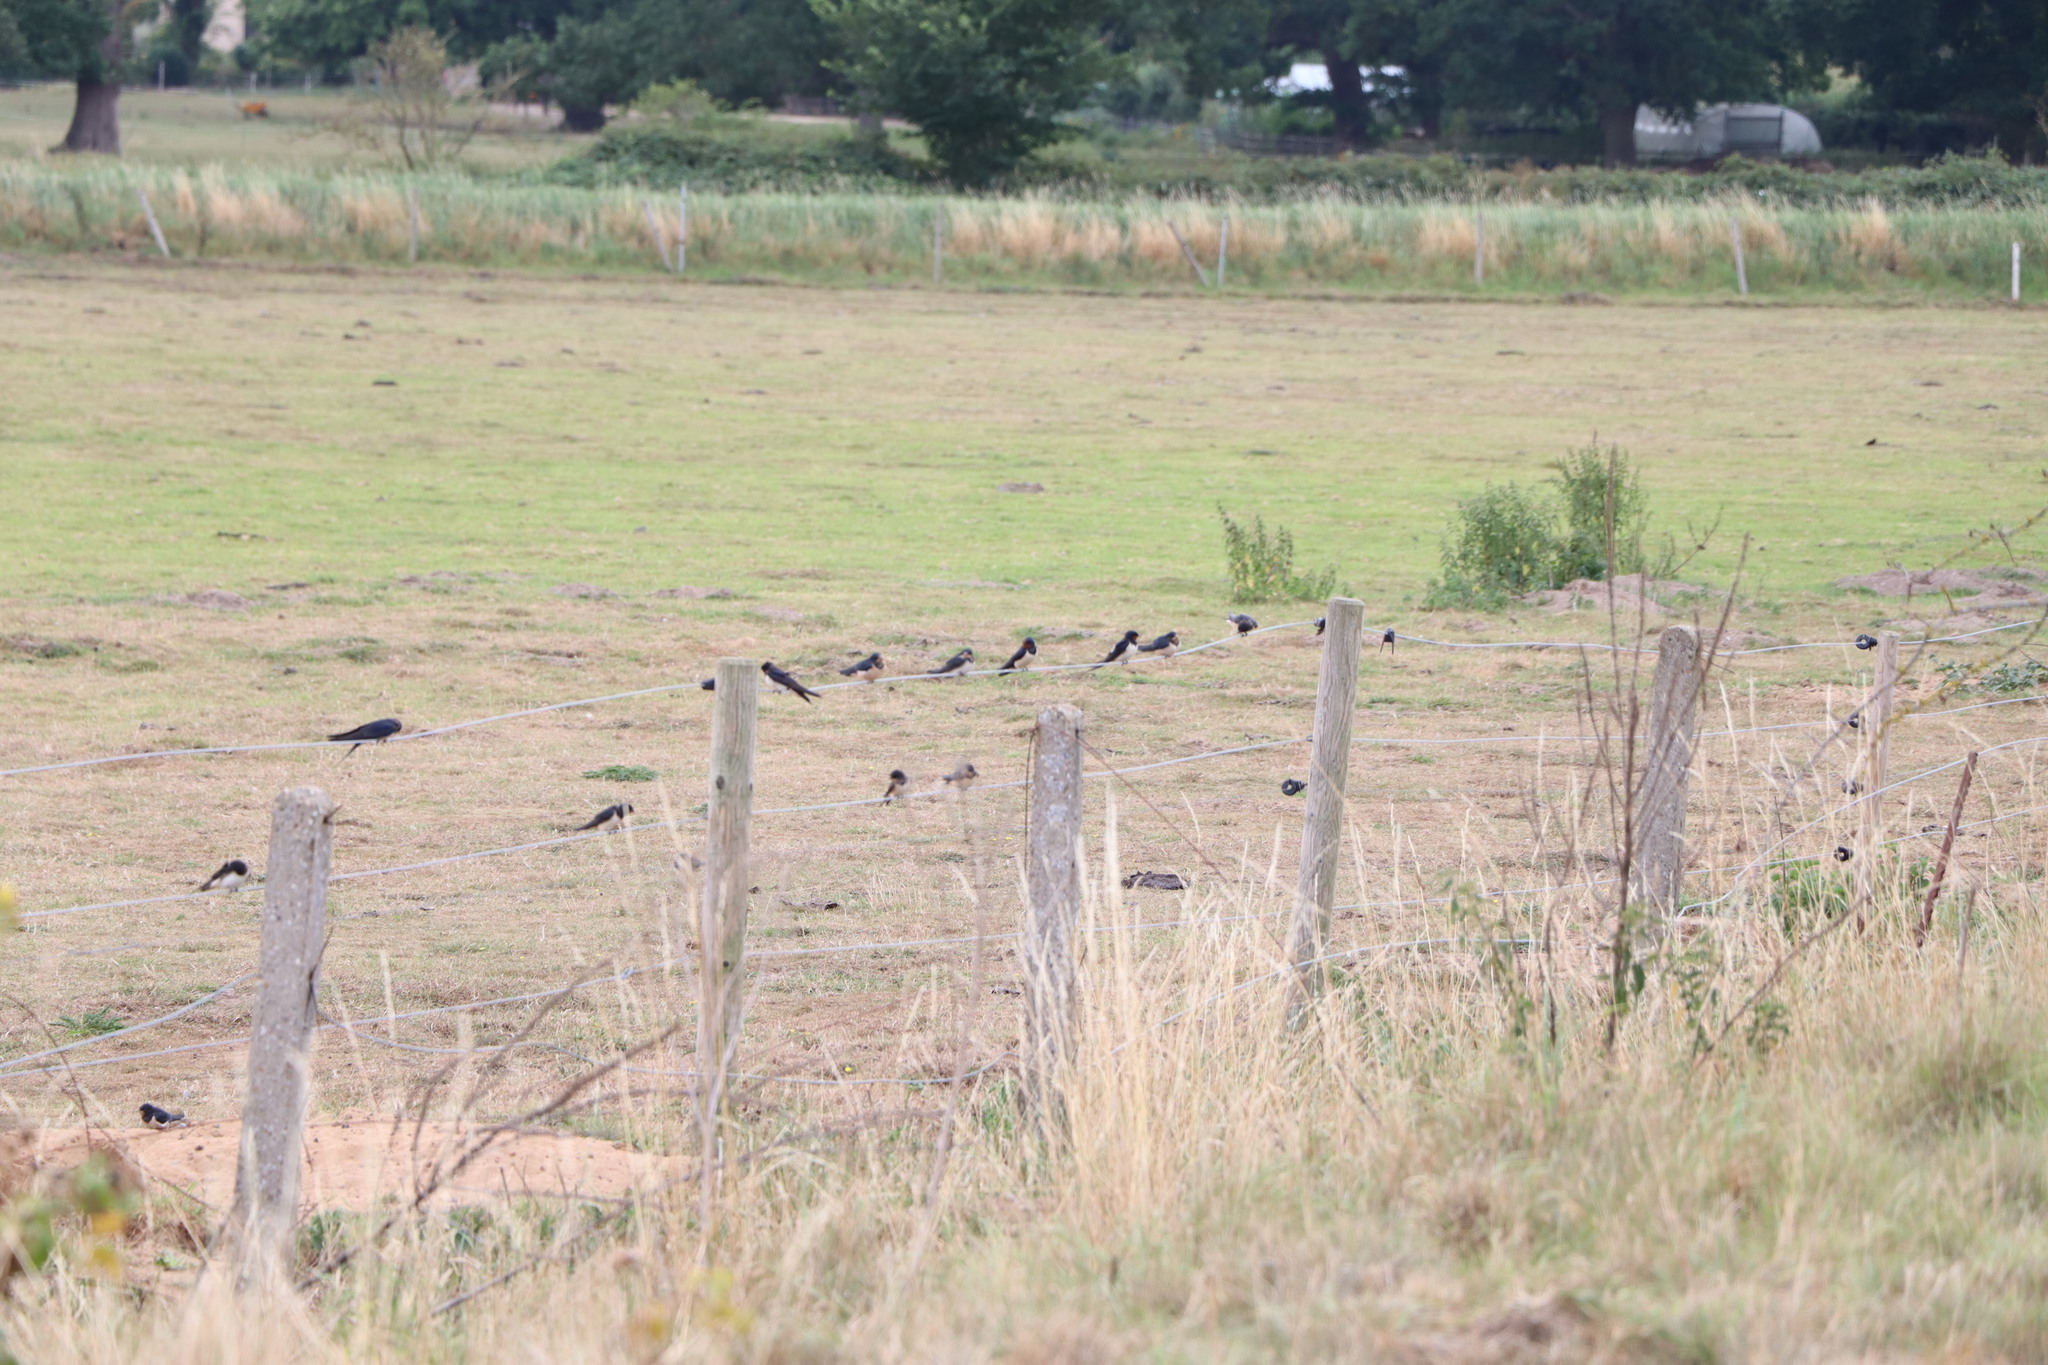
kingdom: Animalia
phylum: Chordata
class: Aves
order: Passeriformes
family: Hirundinidae
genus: Hirundo
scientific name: Hirundo rustica
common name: Barn swallow
